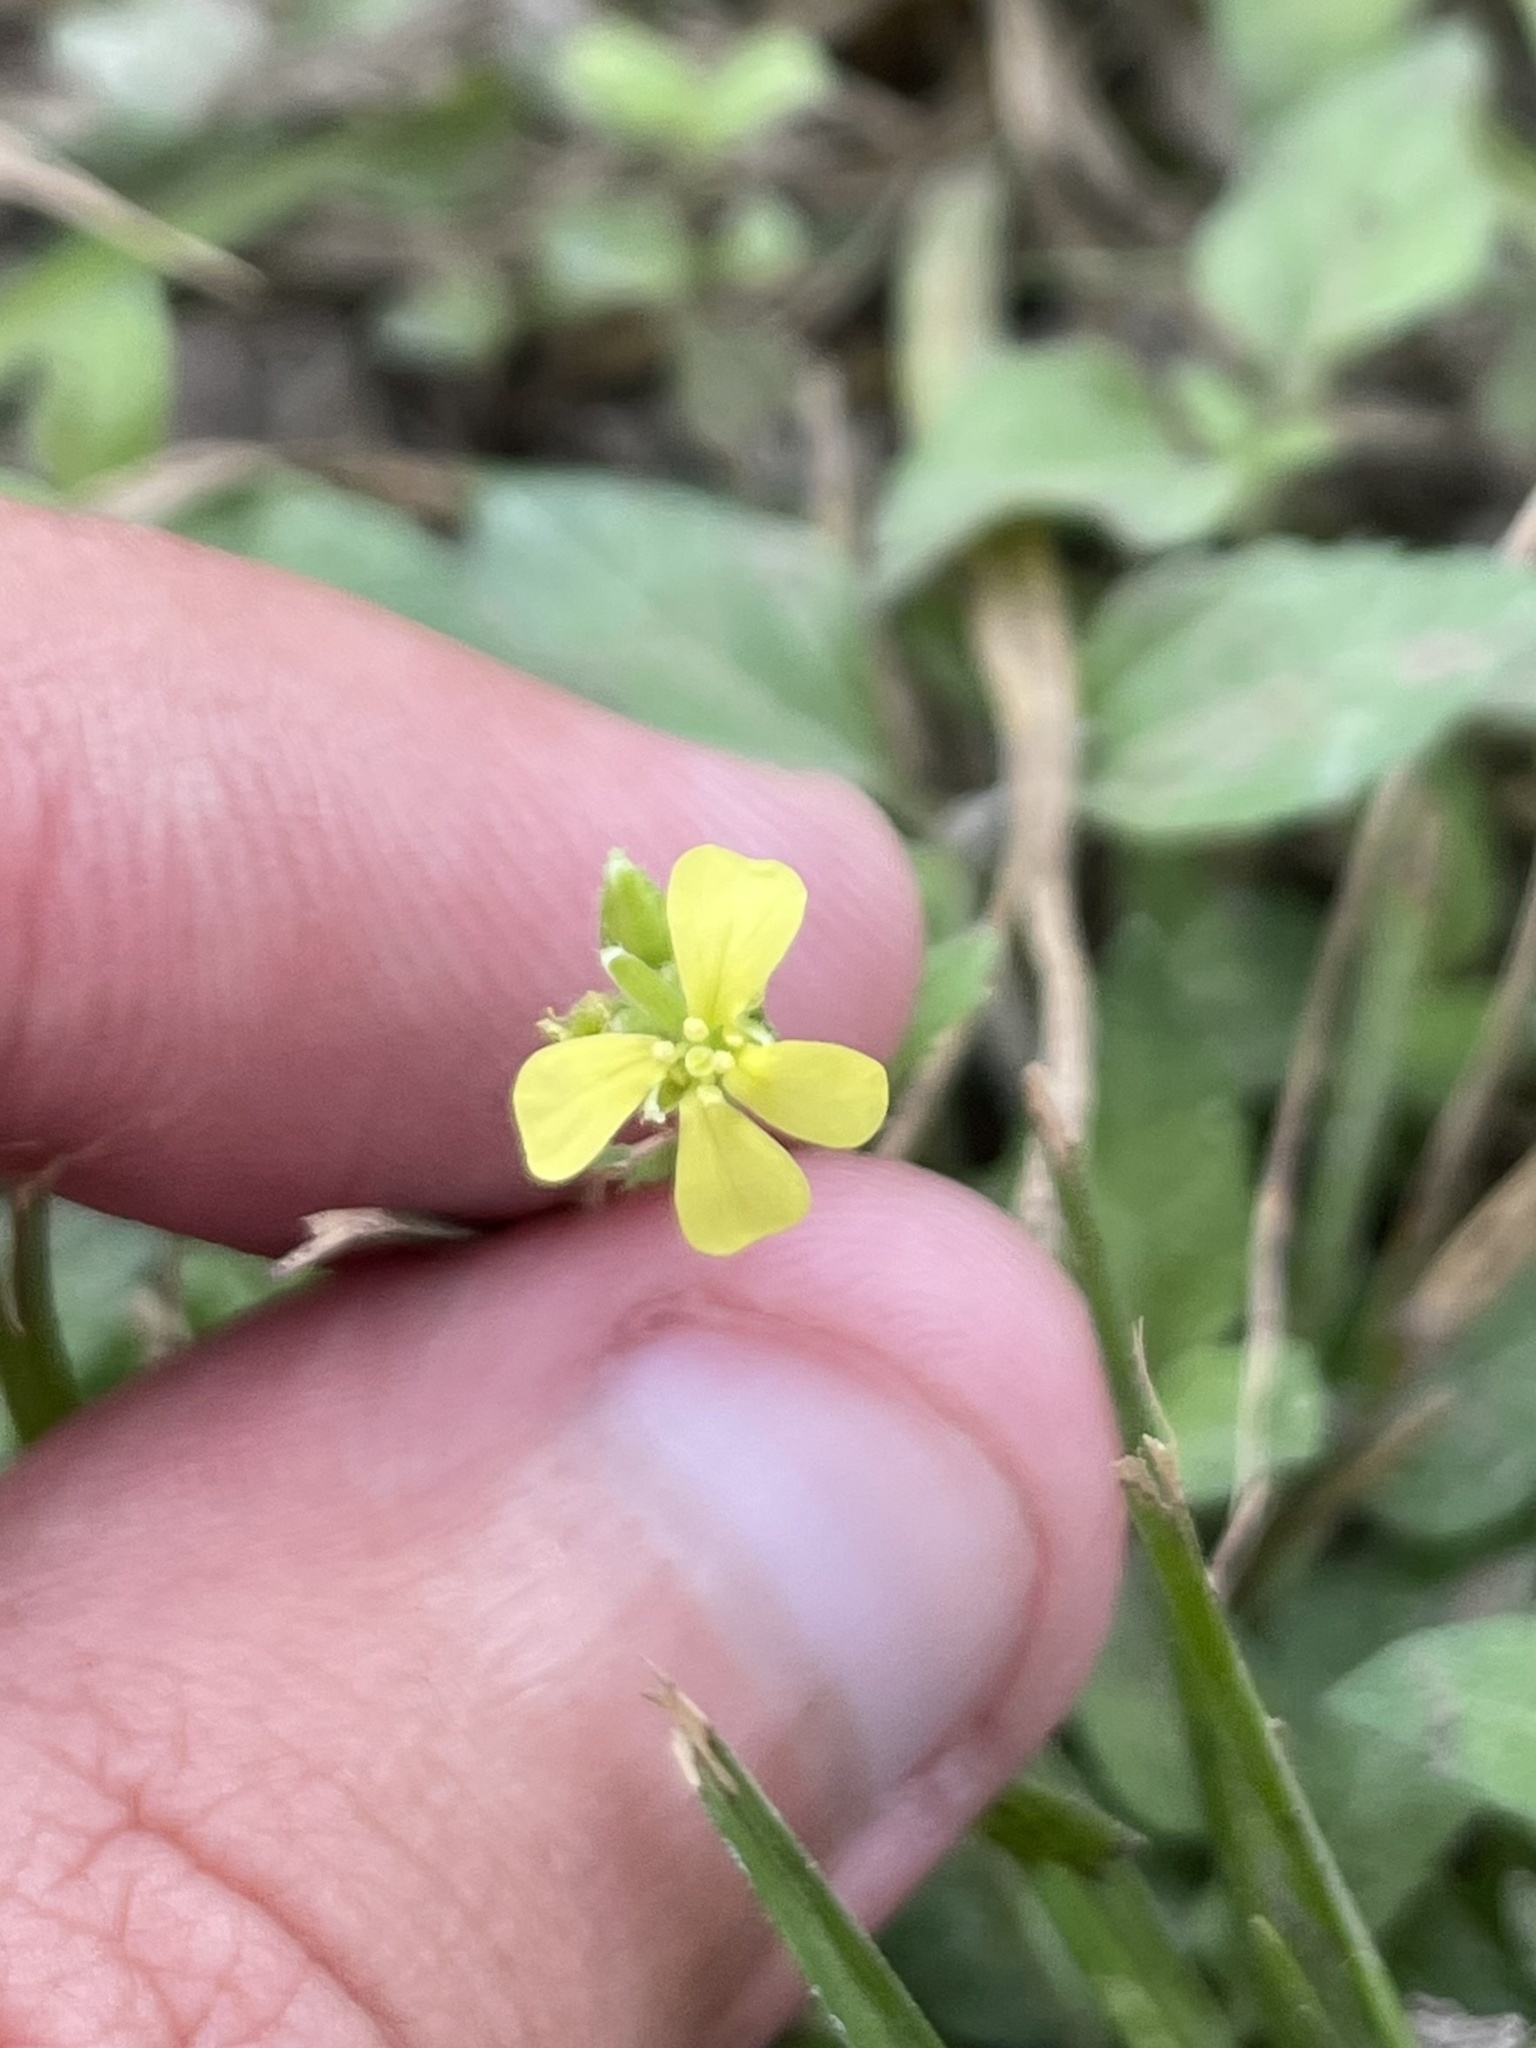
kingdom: Plantae
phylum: Tracheophyta
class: Magnoliopsida
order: Brassicales
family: Brassicaceae
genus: Rapistrum
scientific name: Rapistrum rugosum
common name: Annual bastardcabbage
